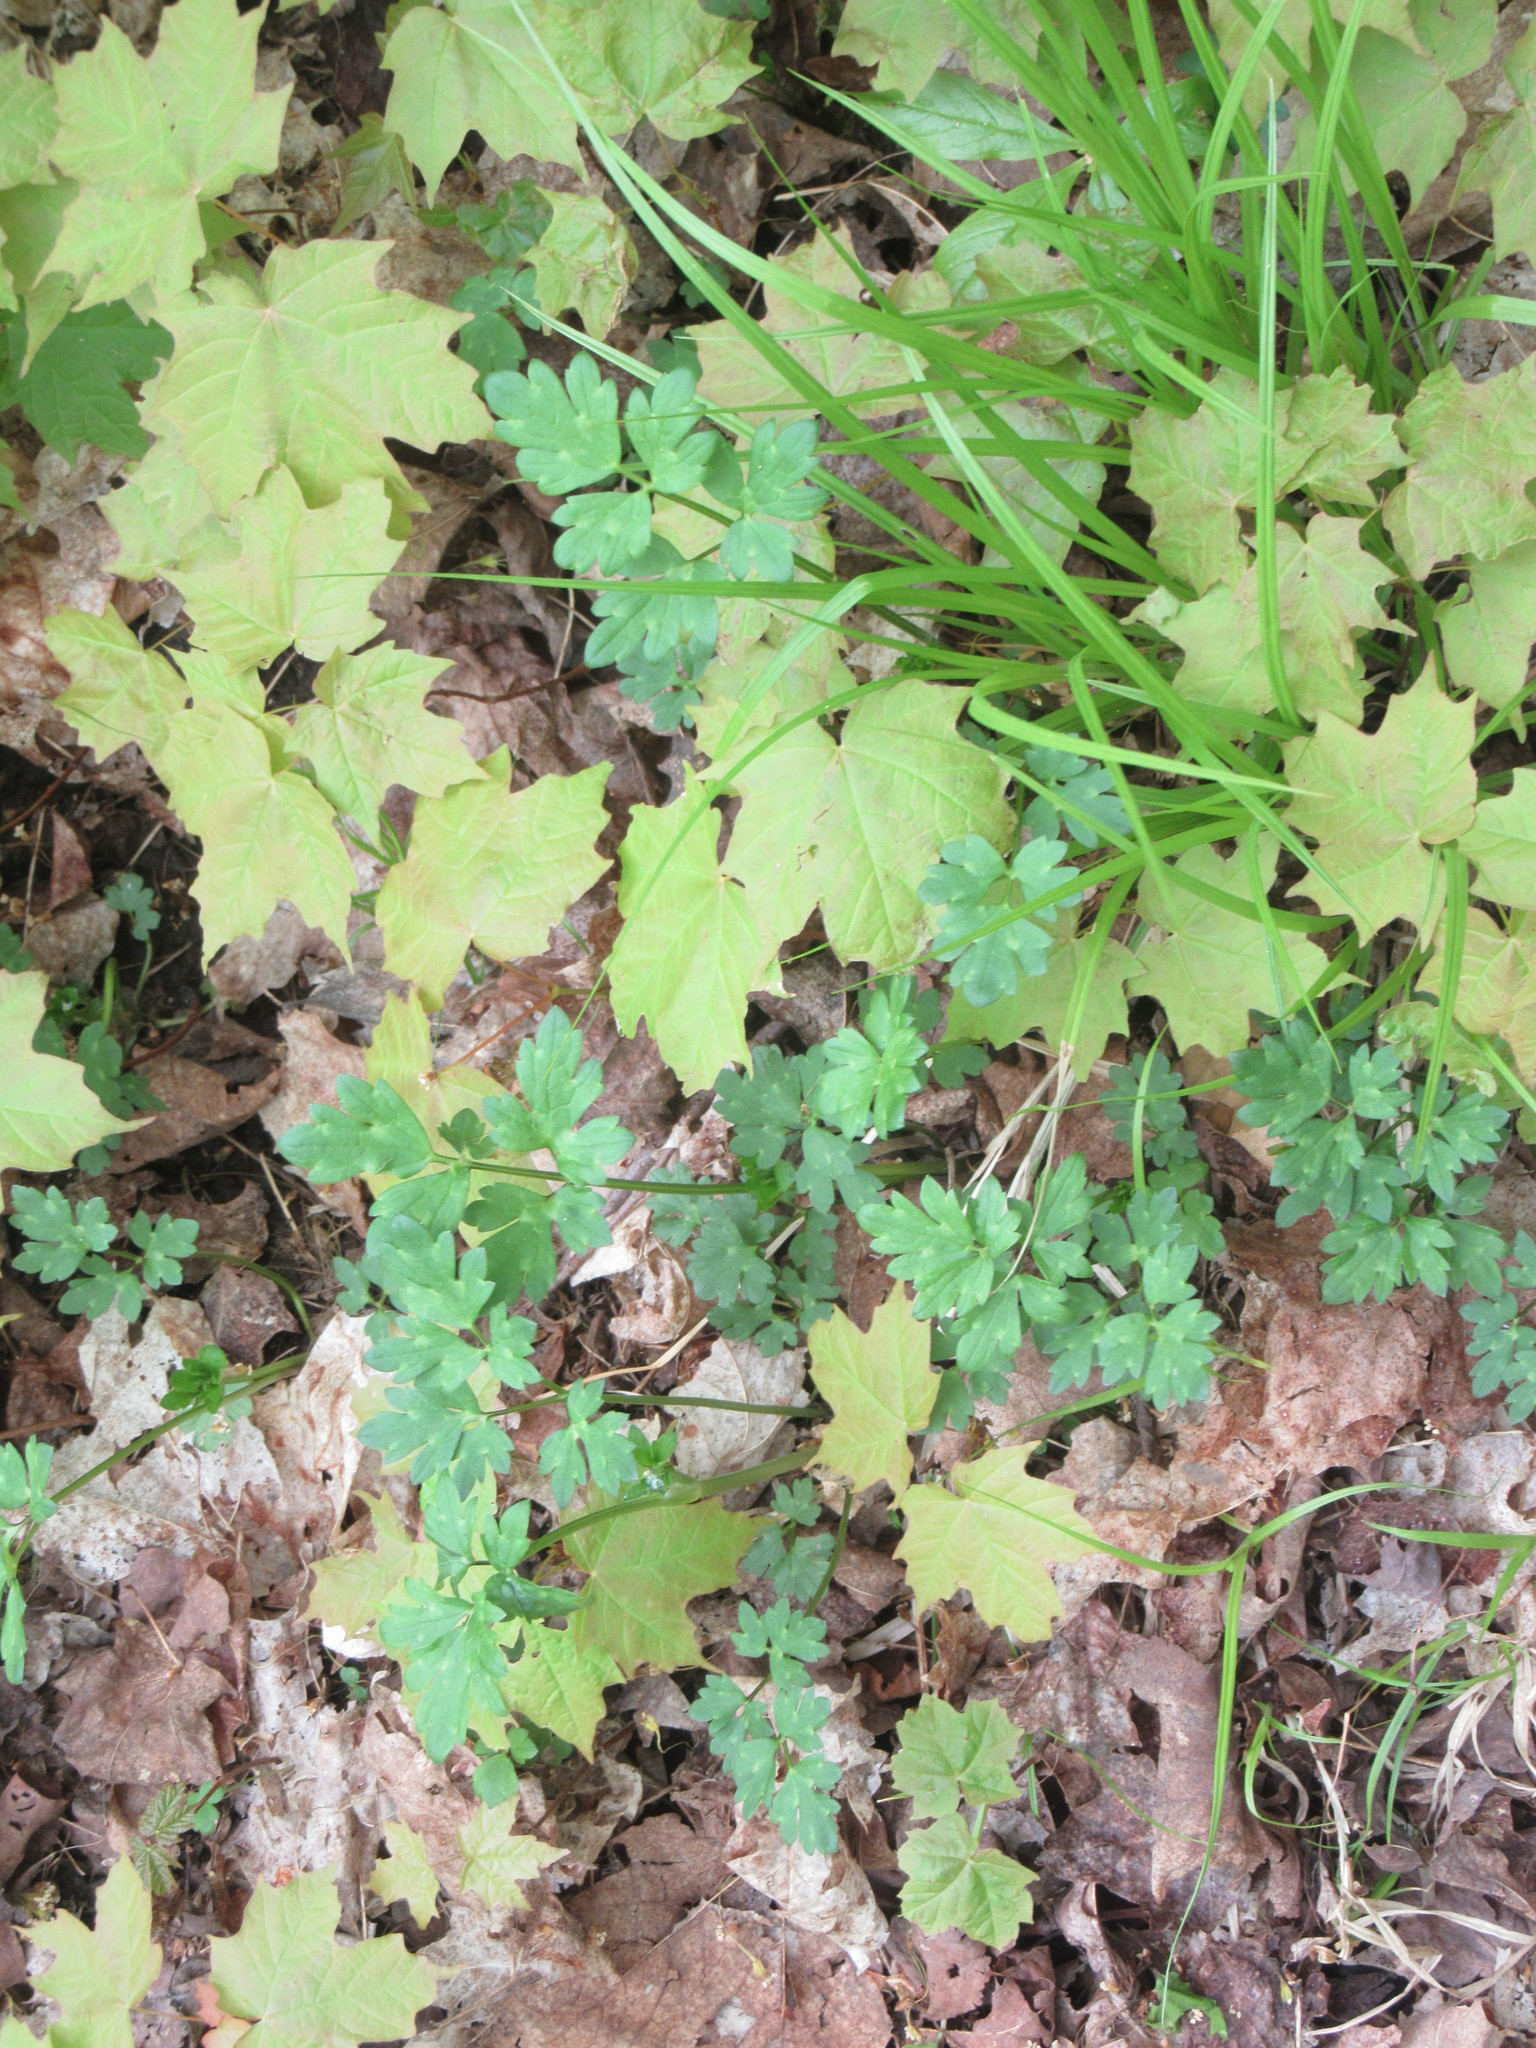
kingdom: Plantae
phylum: Tracheophyta
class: Magnoliopsida
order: Ranunculales
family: Ranunculaceae
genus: Ranunculus
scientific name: Ranunculus repens
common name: Creeping buttercup
